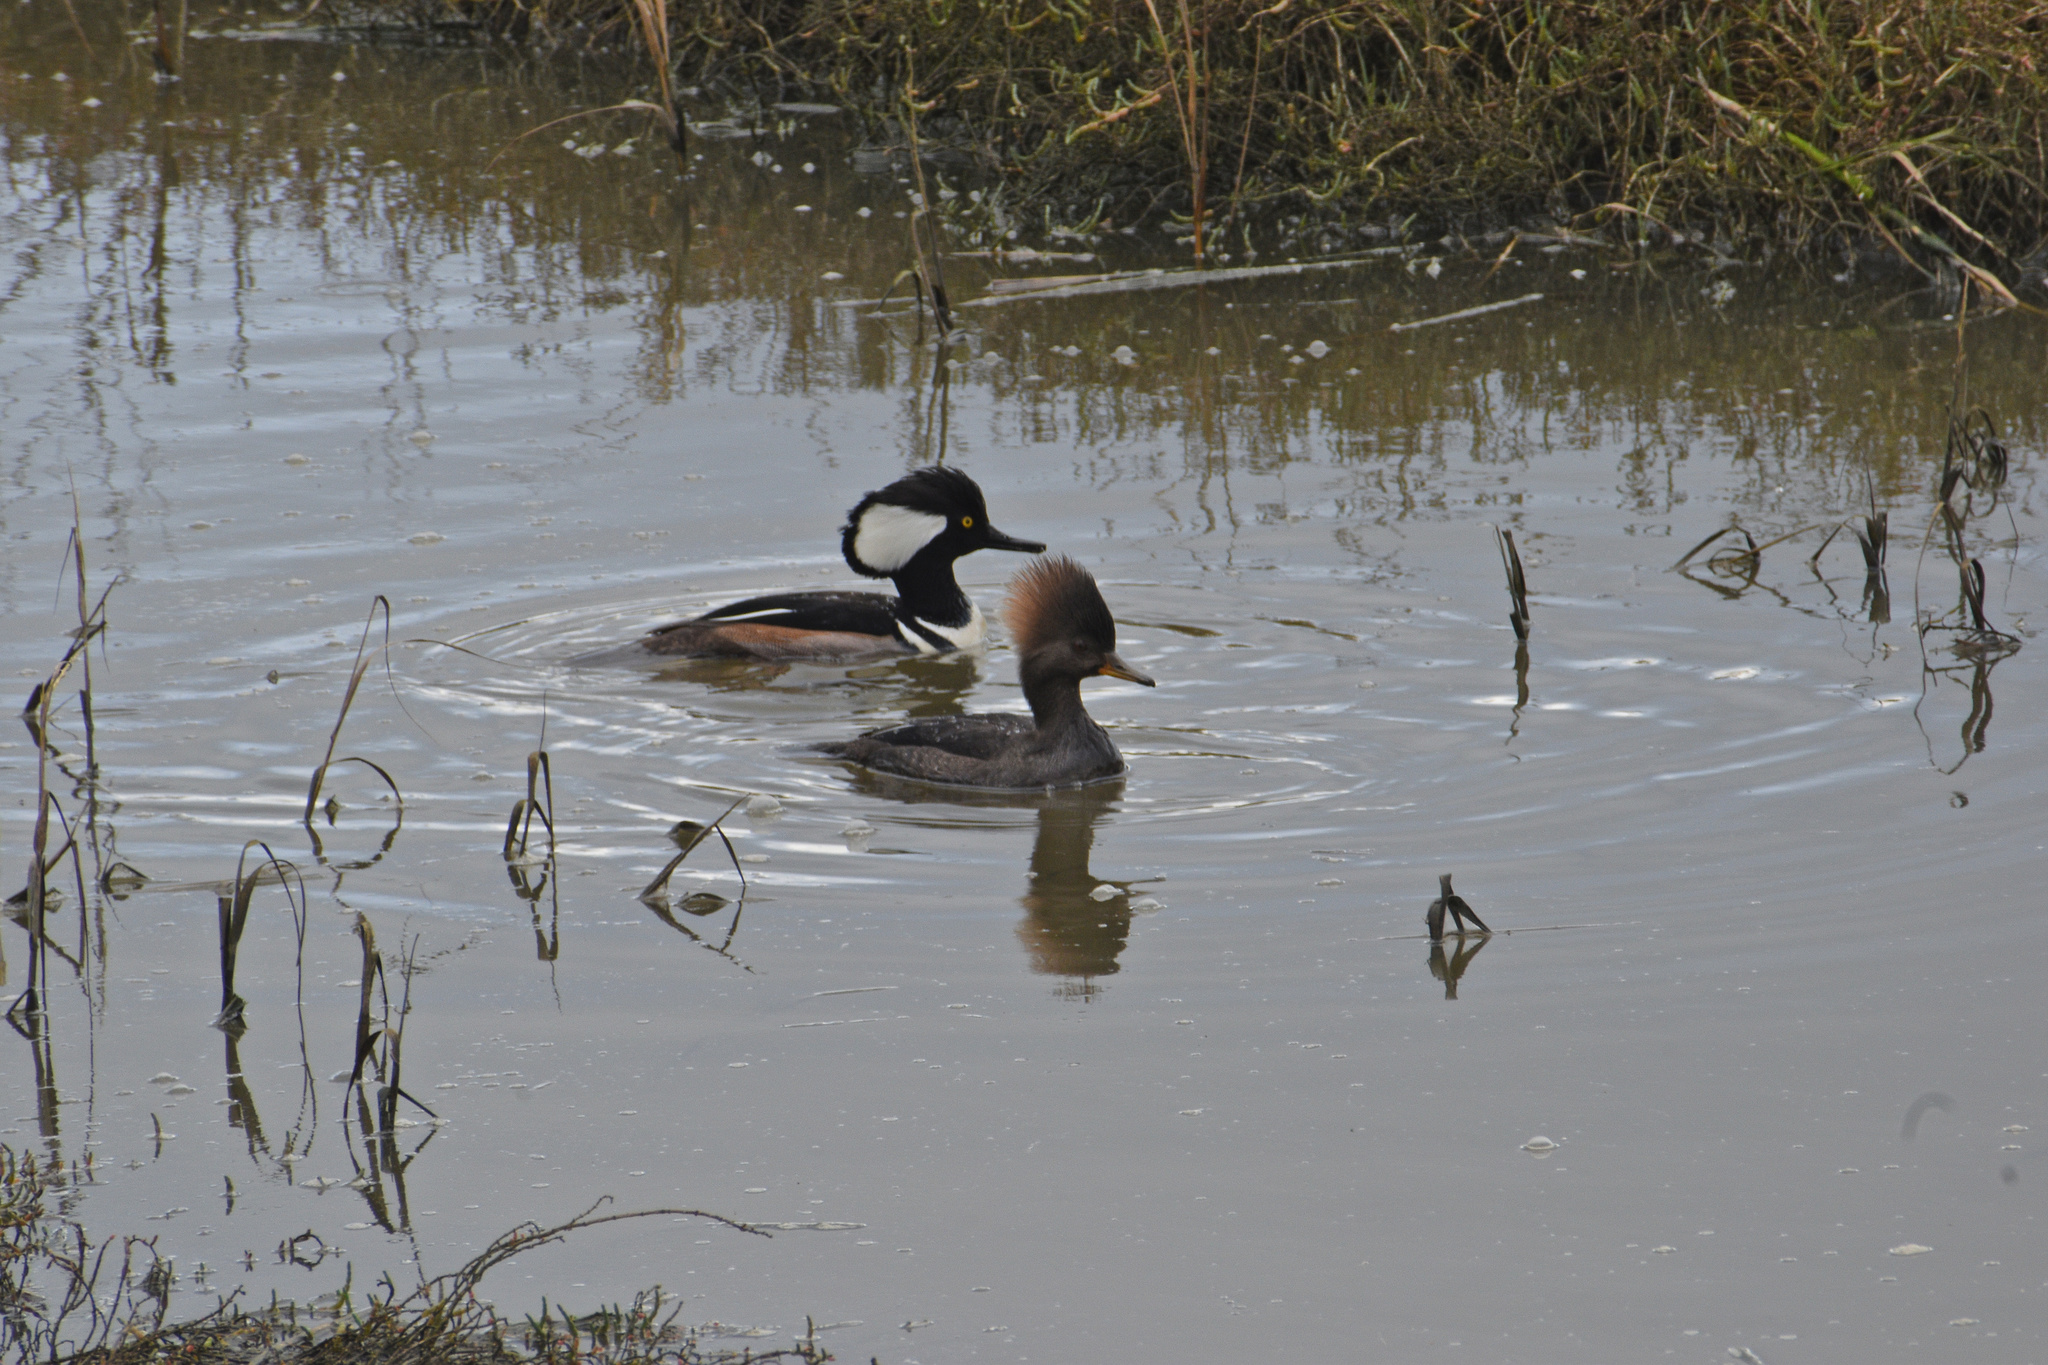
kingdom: Animalia
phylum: Chordata
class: Aves
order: Anseriformes
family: Anatidae
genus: Lophodytes
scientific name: Lophodytes cucullatus
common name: Hooded merganser
